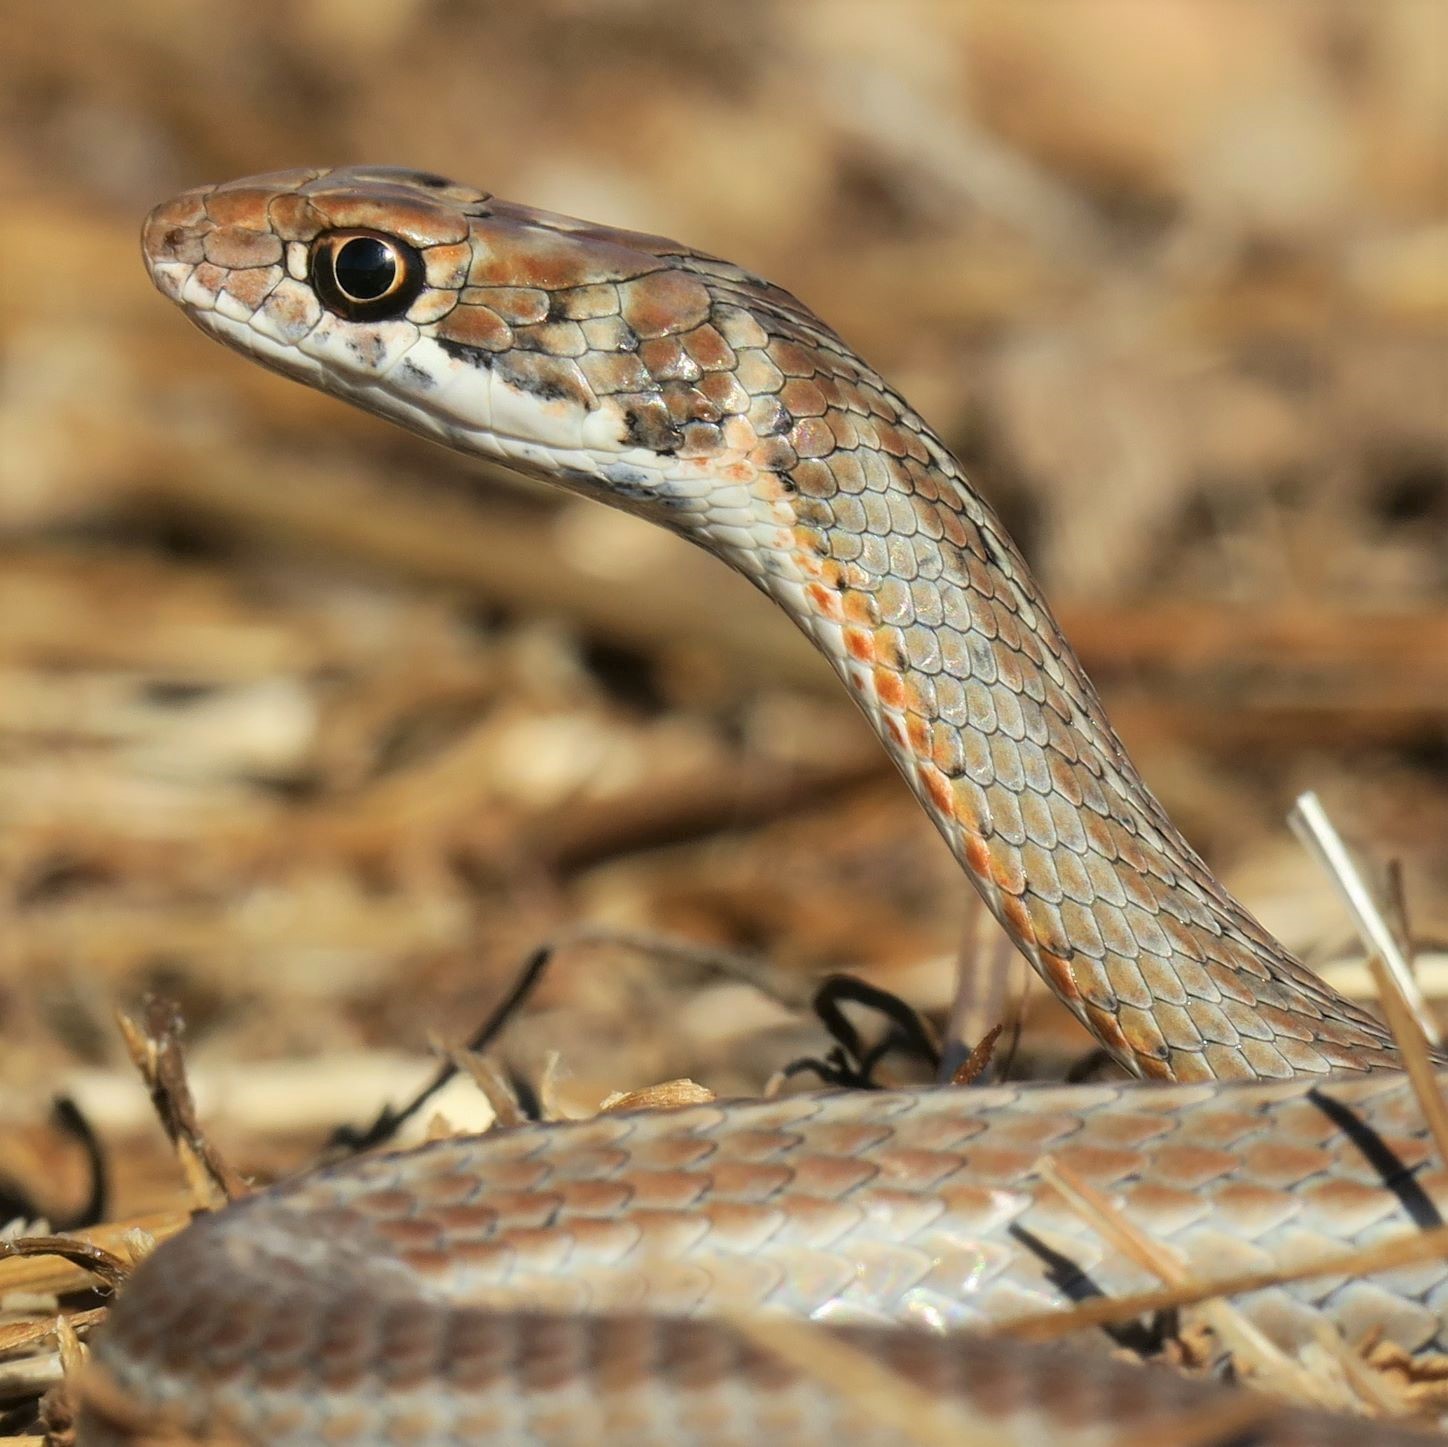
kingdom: Animalia
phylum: Chordata
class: Squamata
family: Psammophiidae
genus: Psammophis
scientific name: Psammophis notostictus
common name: Karoo sand snake
